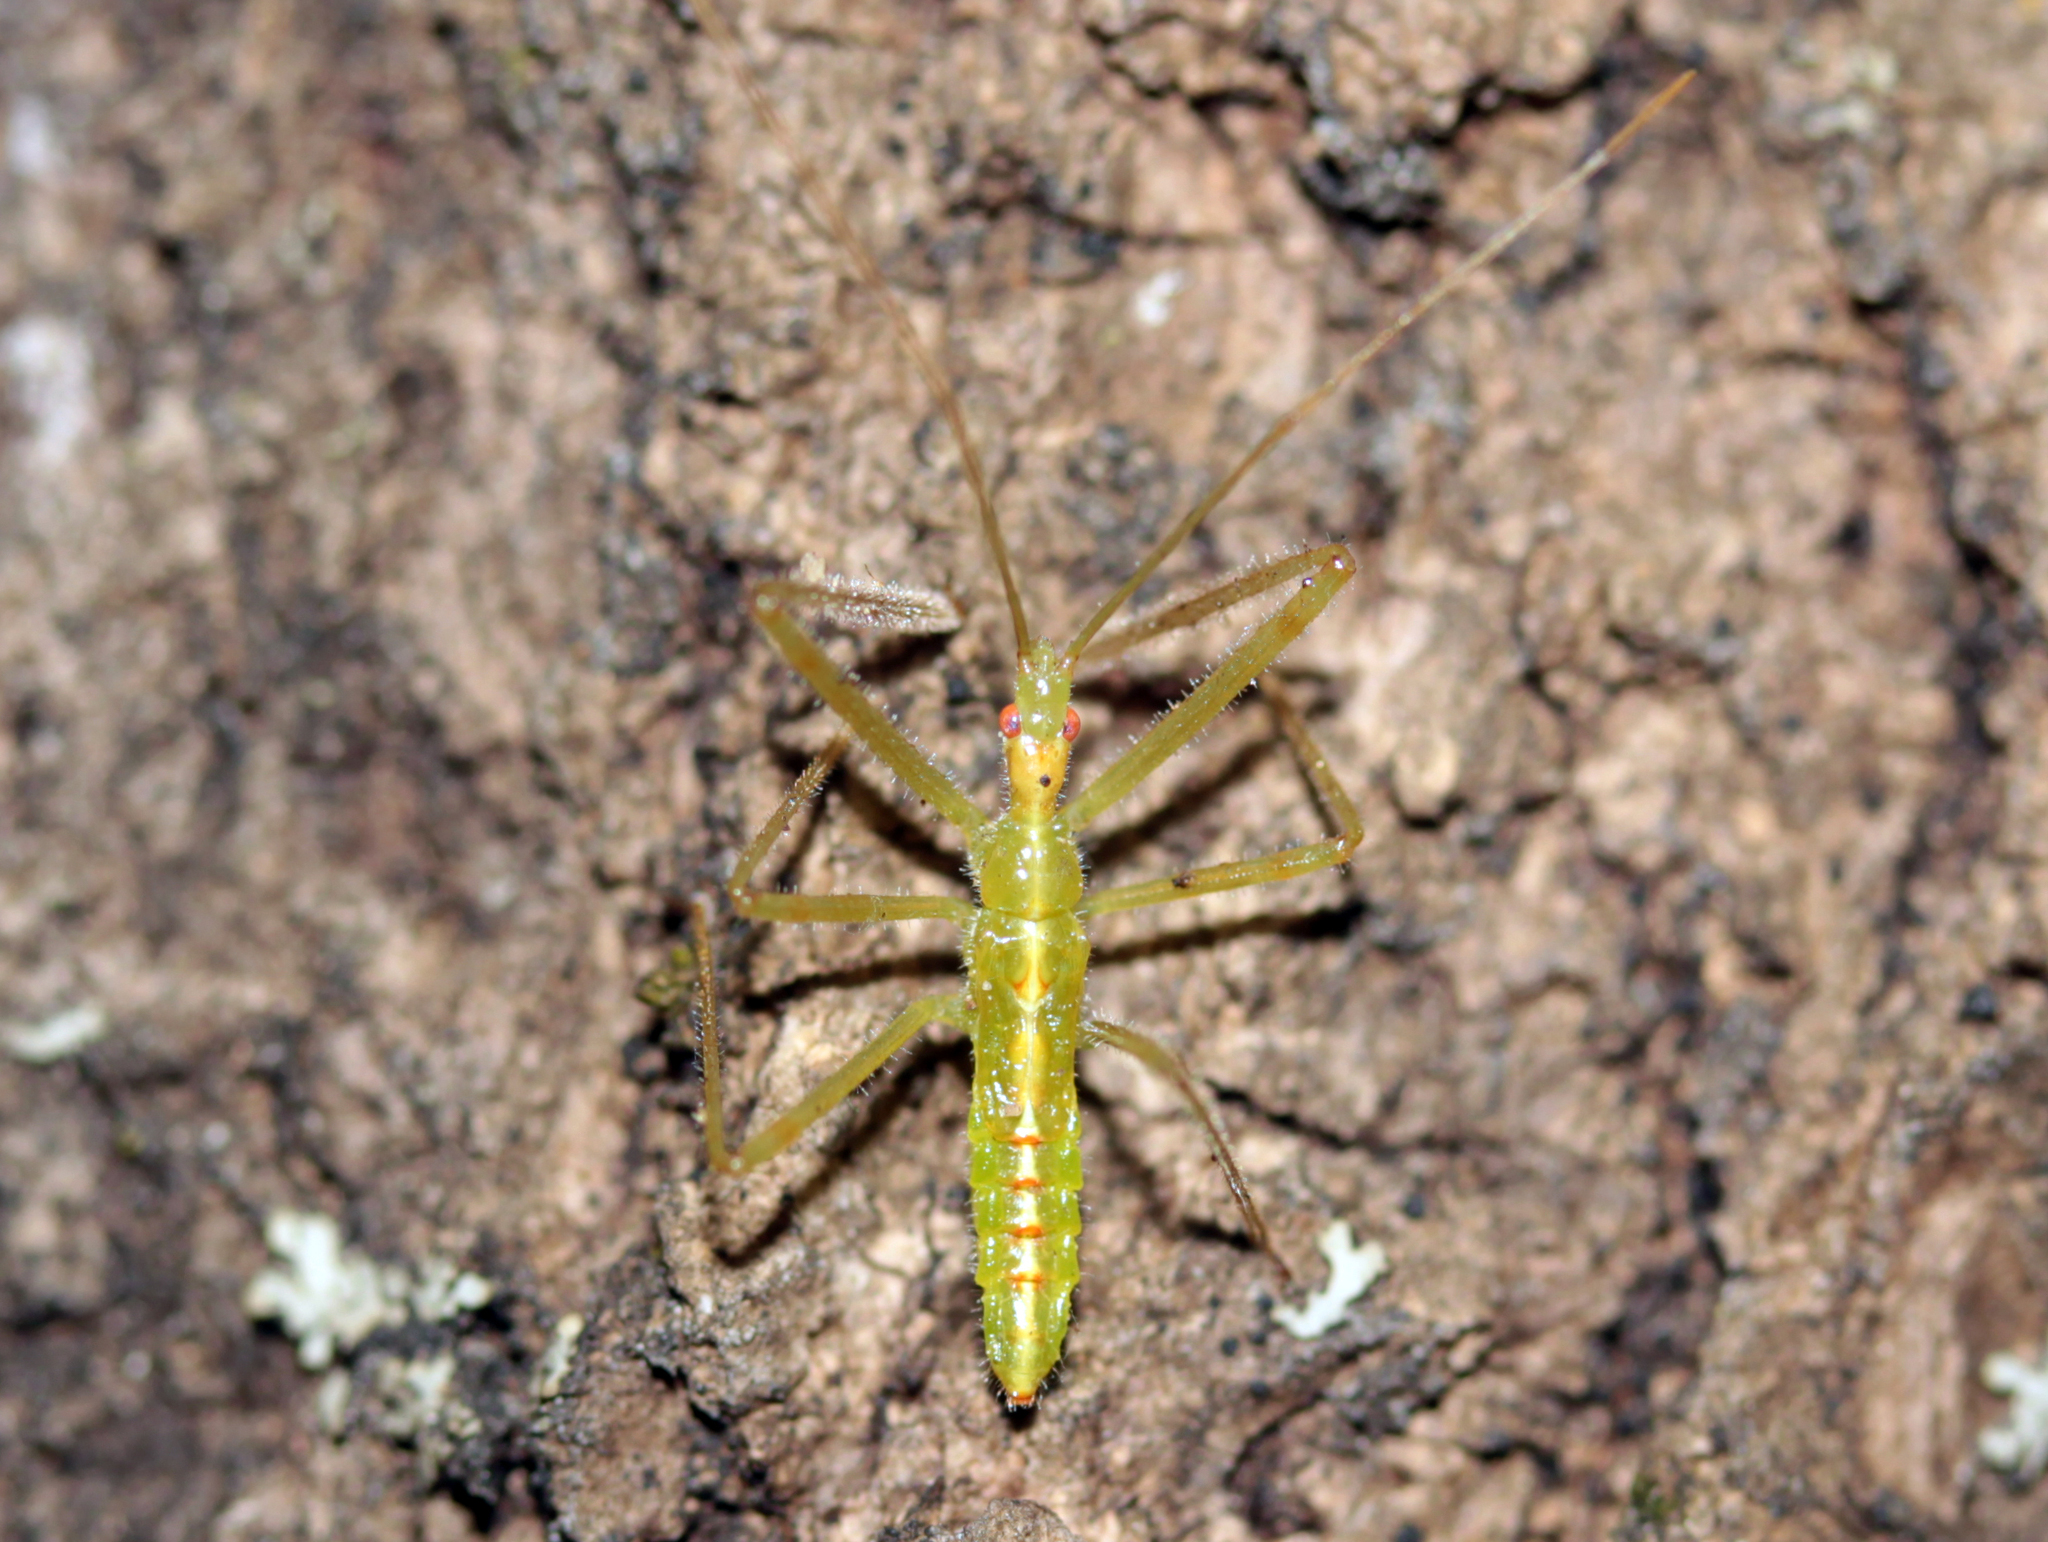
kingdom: Animalia
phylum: Arthropoda
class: Insecta
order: Hemiptera
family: Reduviidae
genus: Zelus
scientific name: Zelus luridus
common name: Pale green assassin bug
